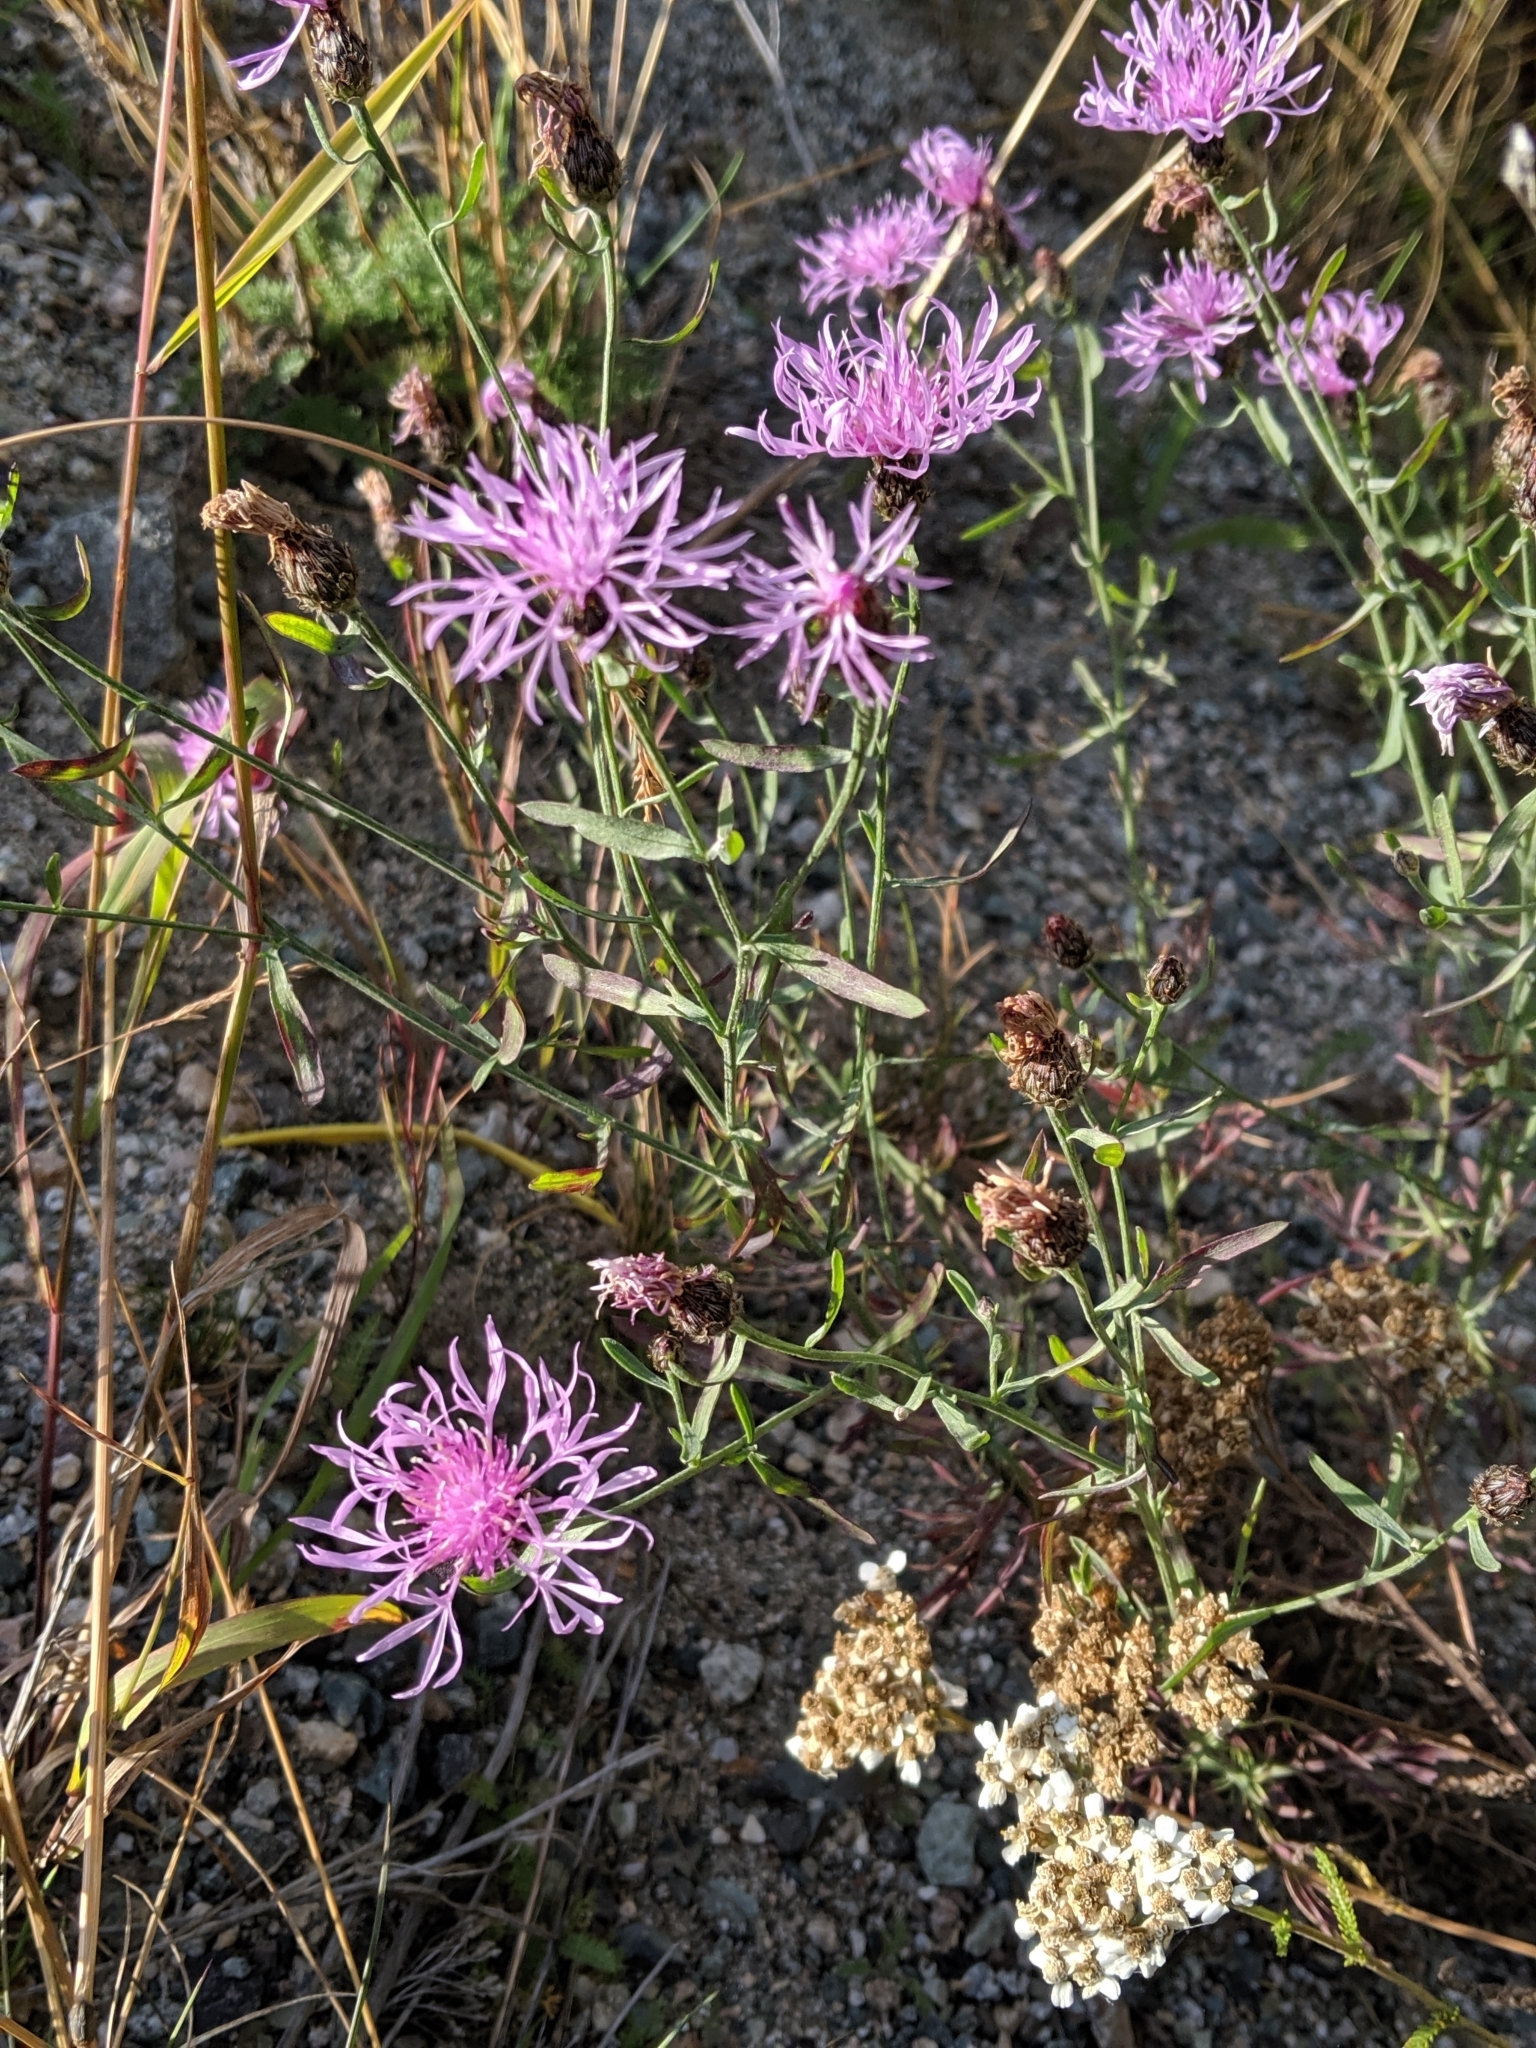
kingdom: Plantae
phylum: Tracheophyta
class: Magnoliopsida
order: Asterales
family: Asteraceae
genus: Centaurea
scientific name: Centaurea stoebe
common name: Spotted knapweed
